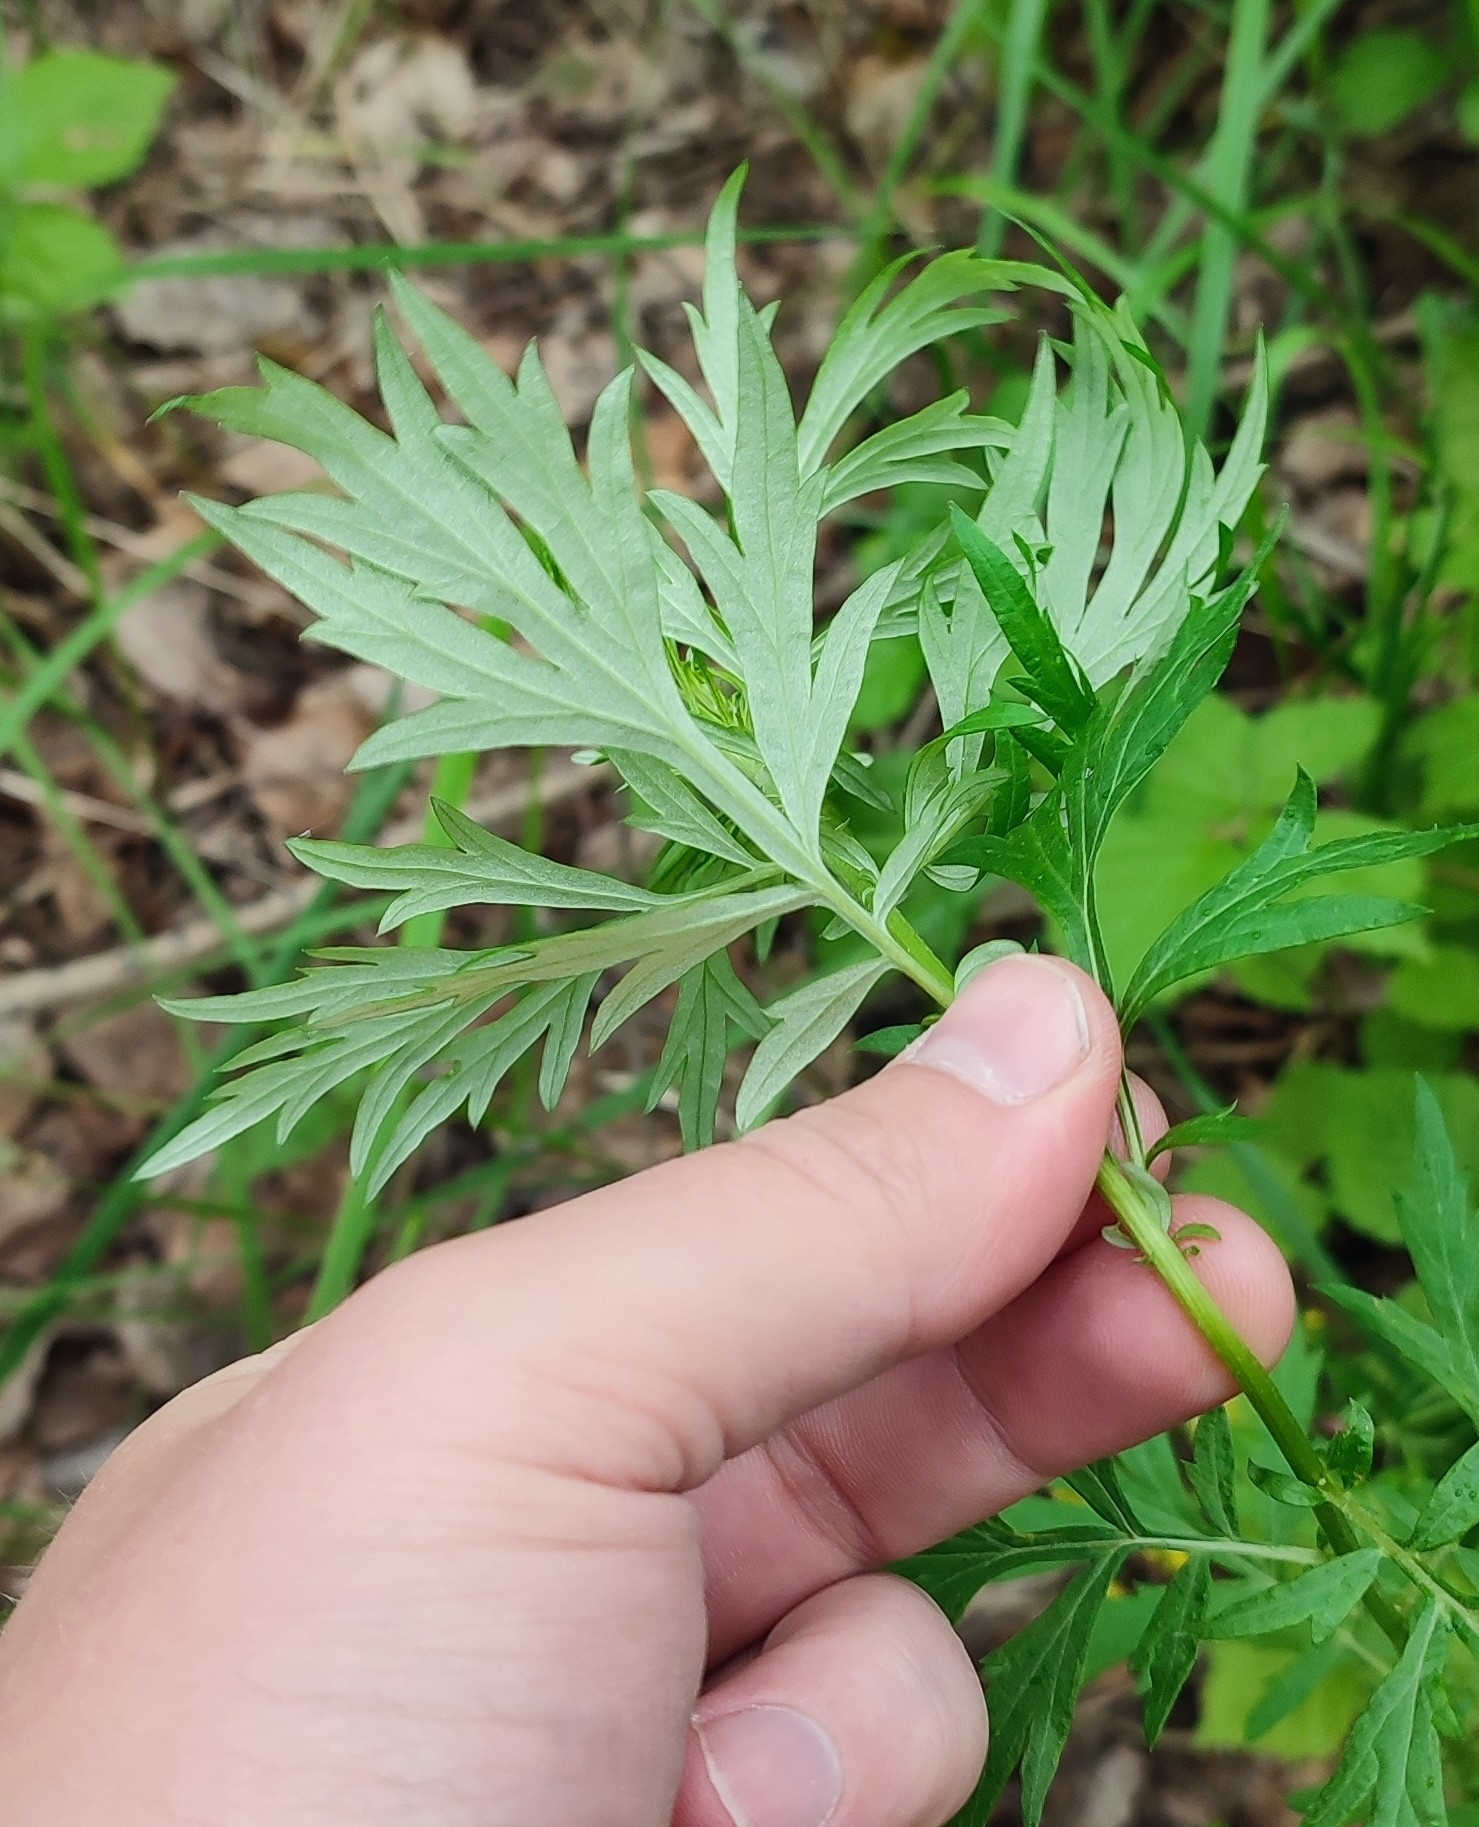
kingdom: Plantae
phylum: Tracheophyta
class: Magnoliopsida
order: Asterales
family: Asteraceae
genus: Artemisia
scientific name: Artemisia vulgaris
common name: Mugwort
